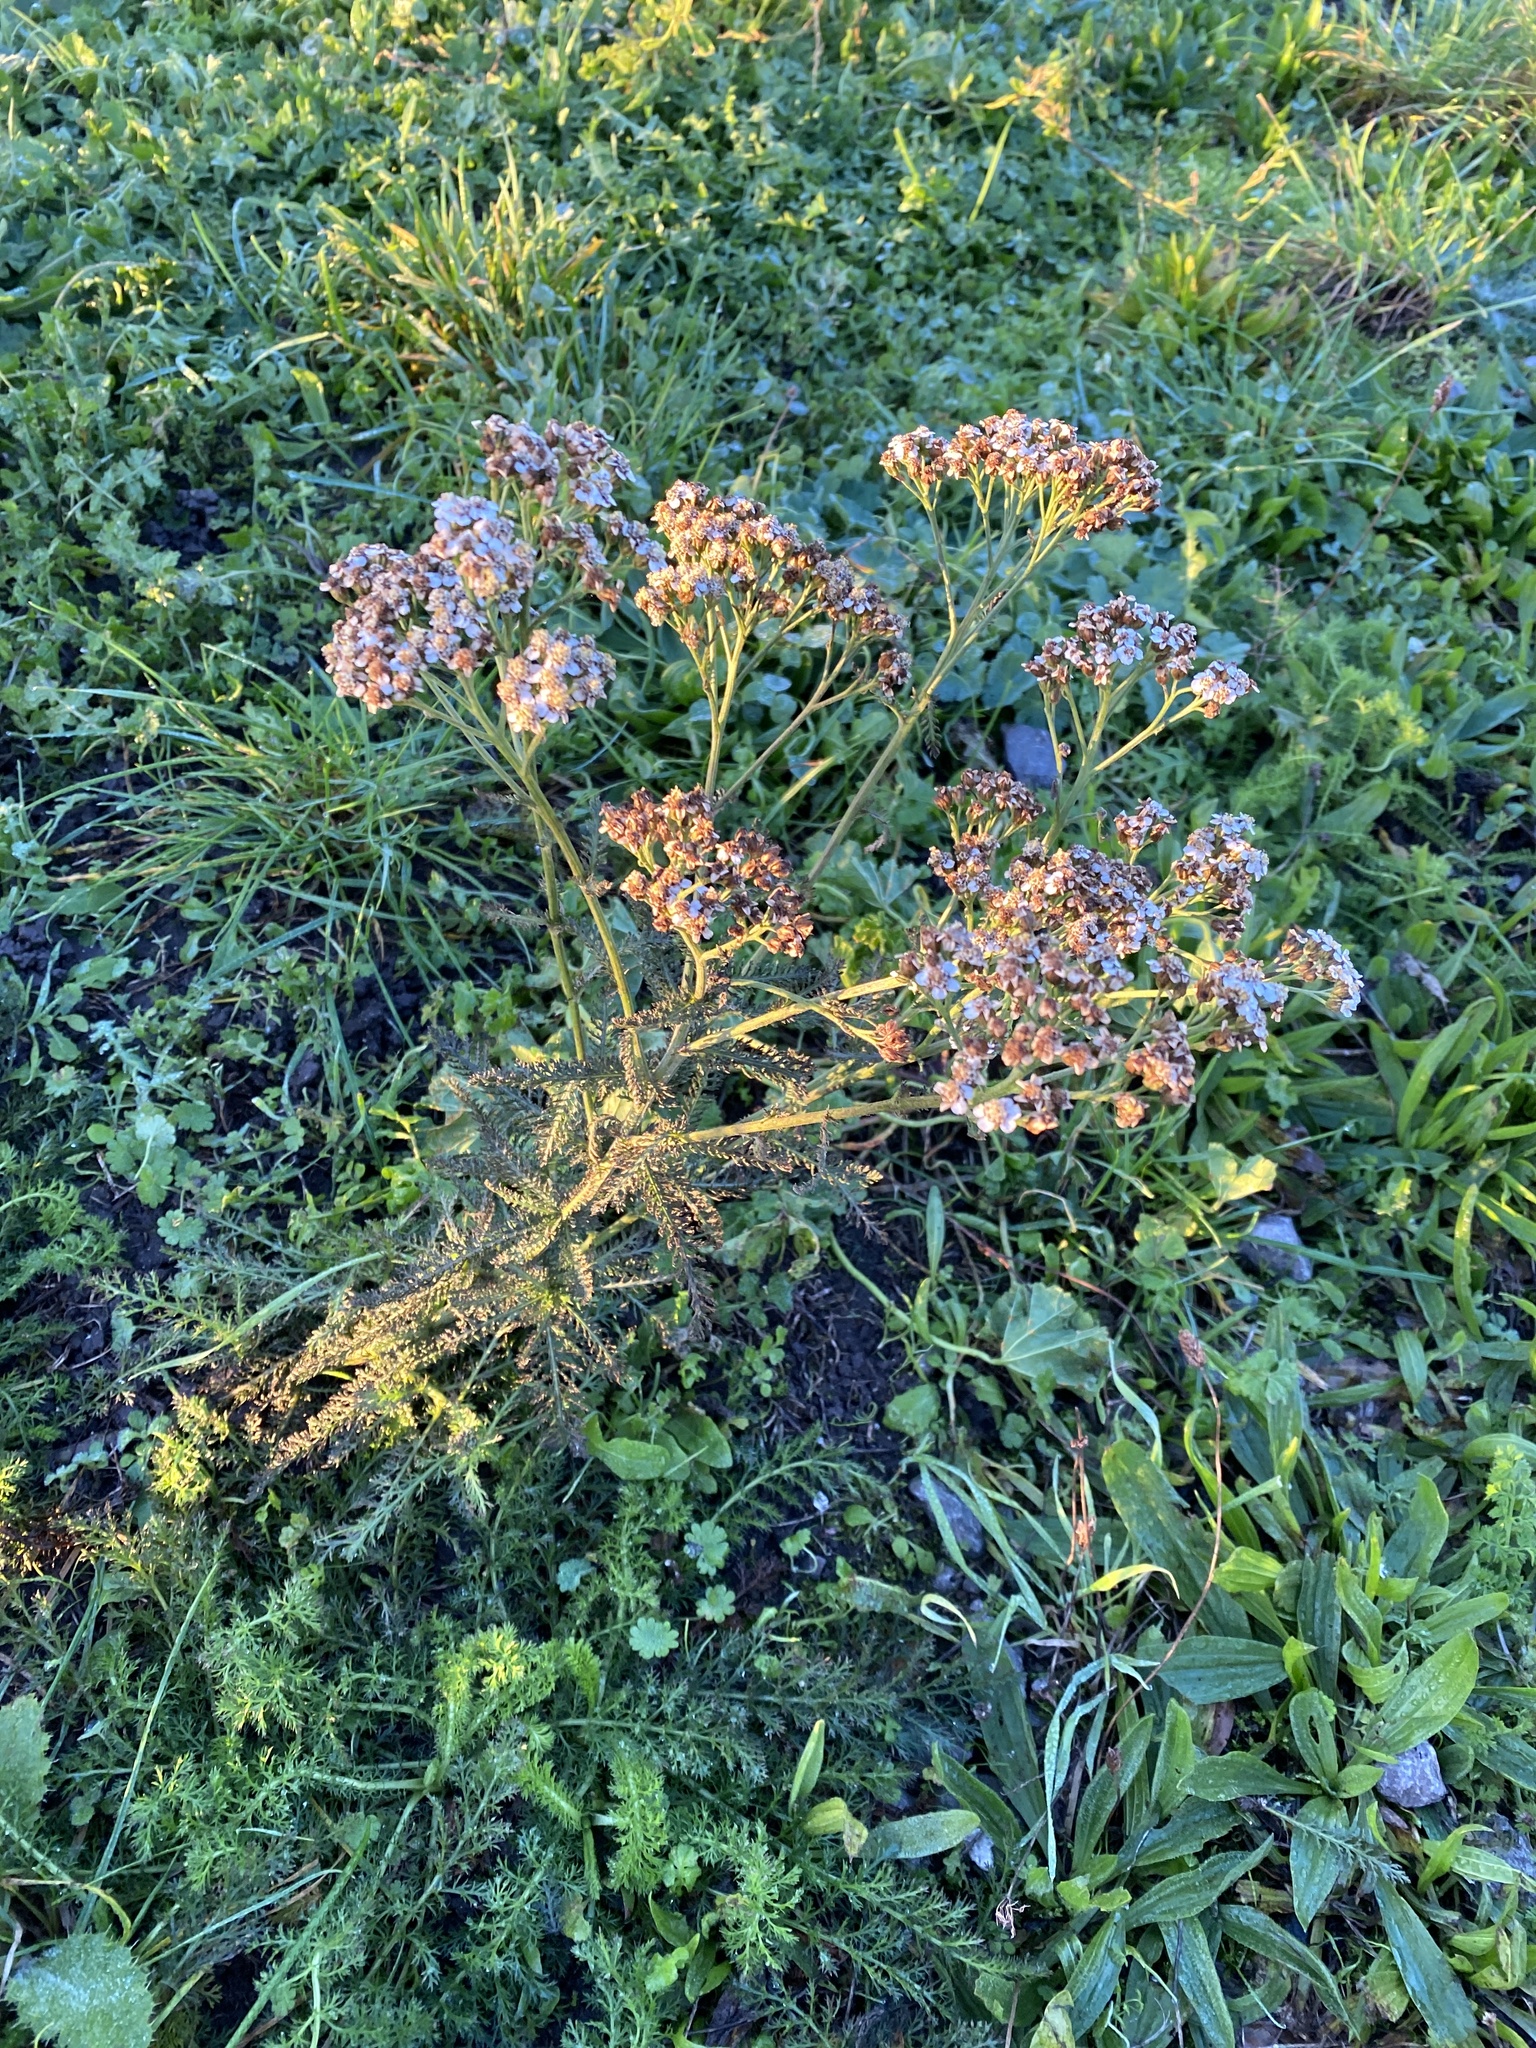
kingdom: Plantae
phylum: Tracheophyta
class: Magnoliopsida
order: Asterales
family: Asteraceae
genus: Achillea
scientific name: Achillea millefolium
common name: Yarrow
